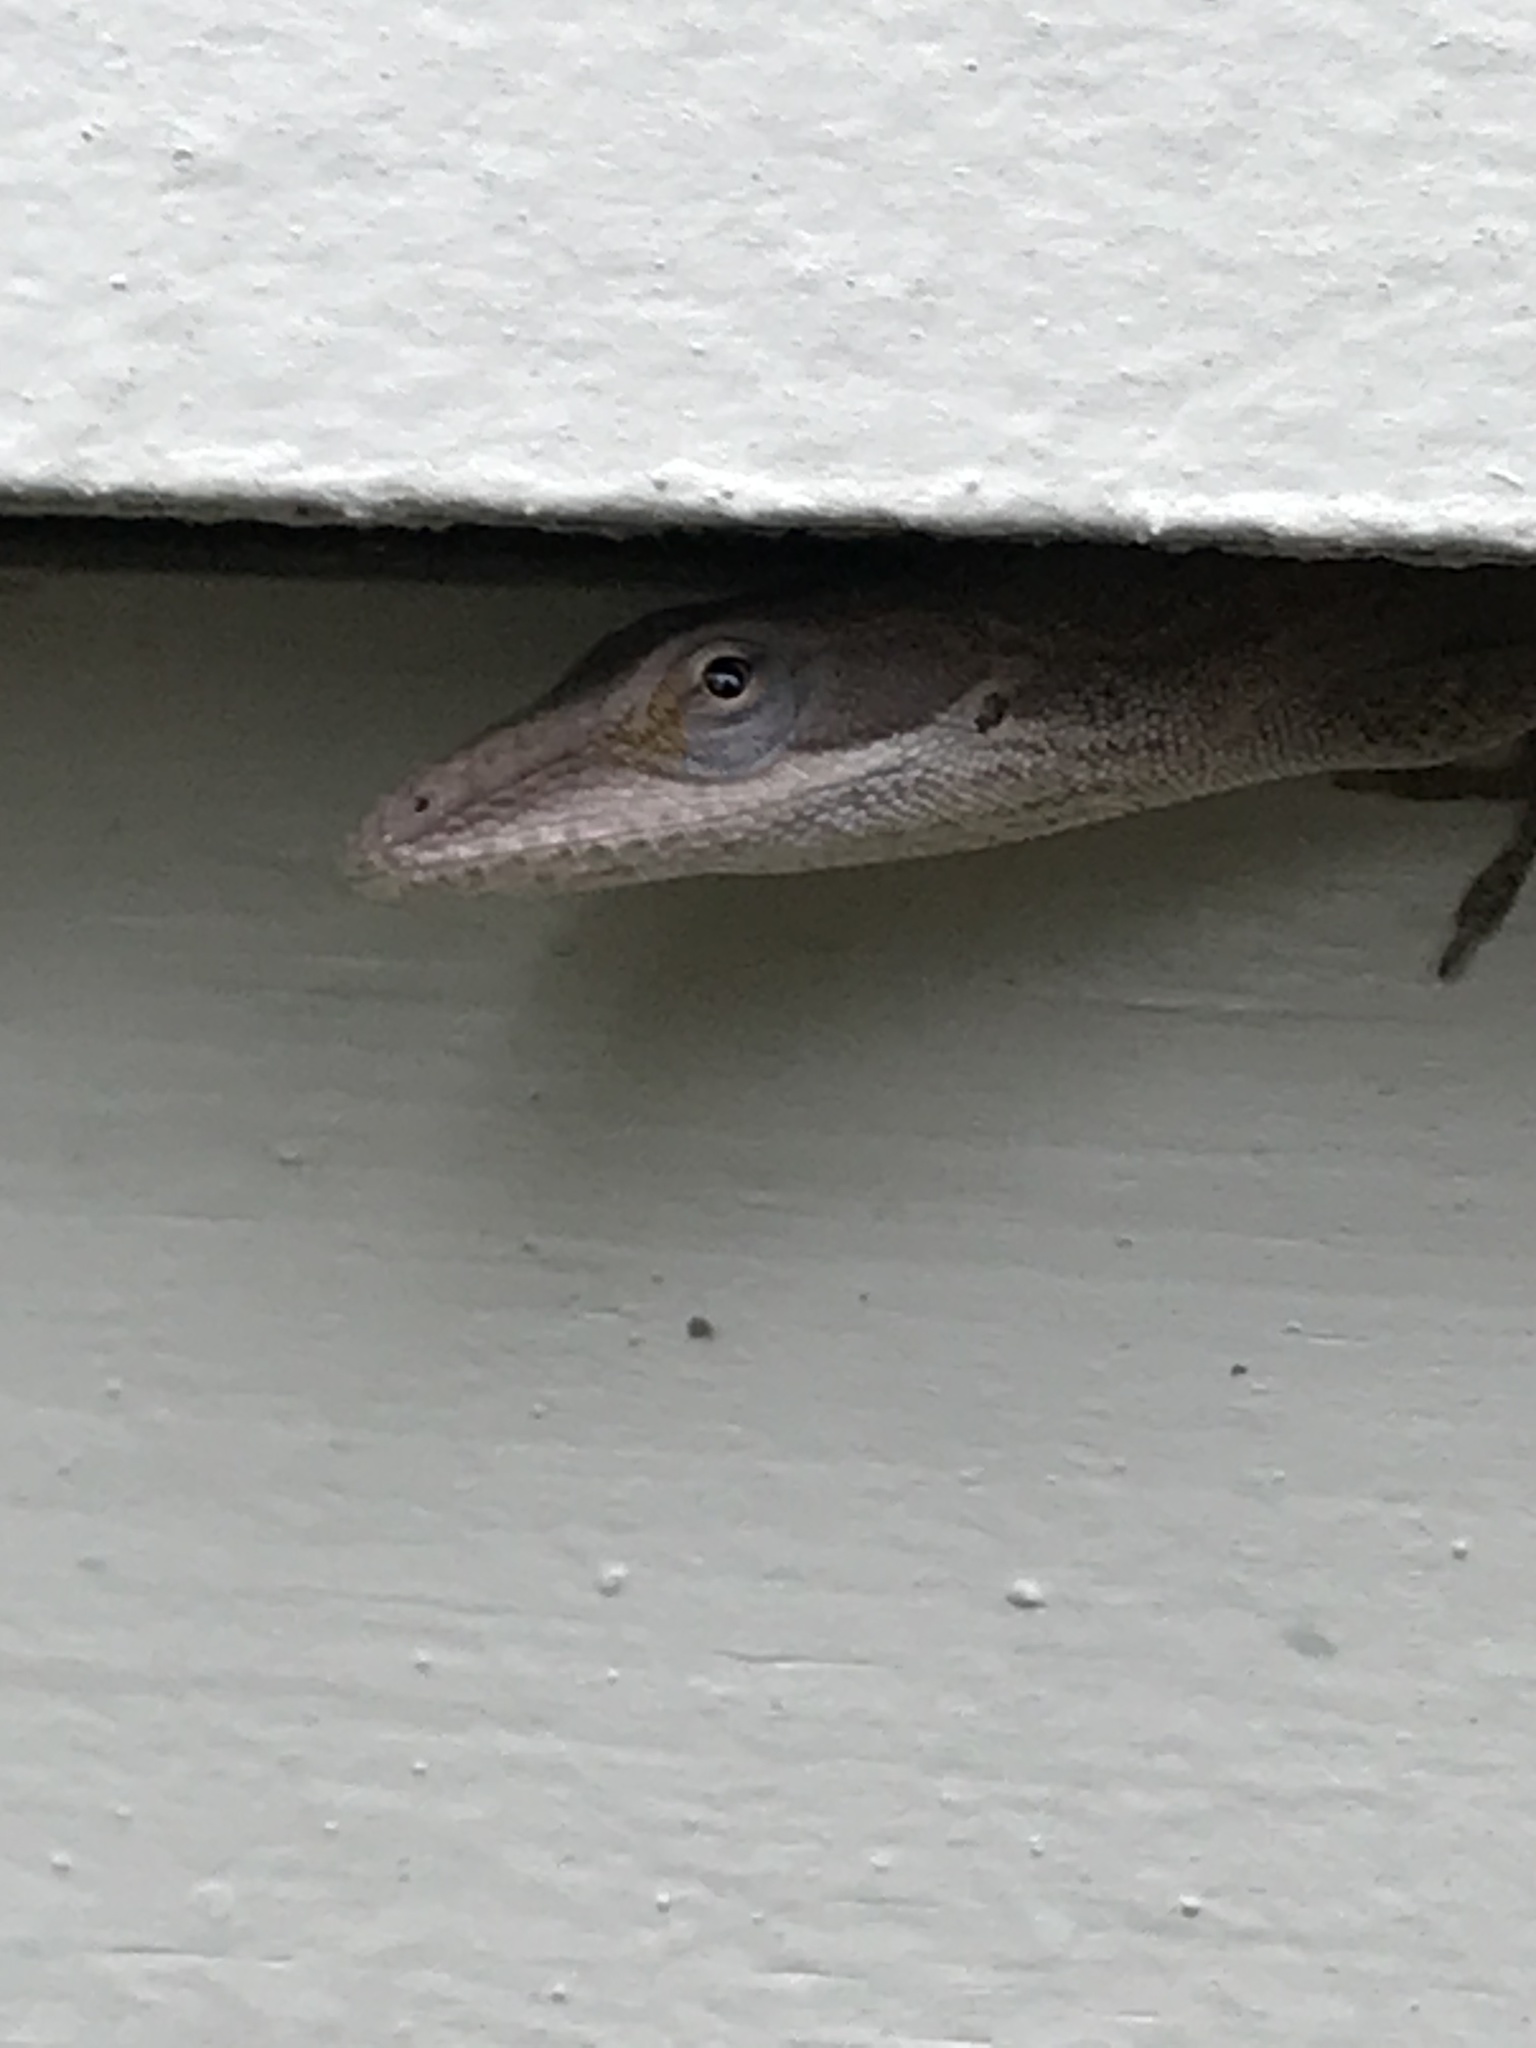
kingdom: Animalia
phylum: Chordata
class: Squamata
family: Dactyloidae
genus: Anolis
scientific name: Anolis carolinensis
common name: Green anole
